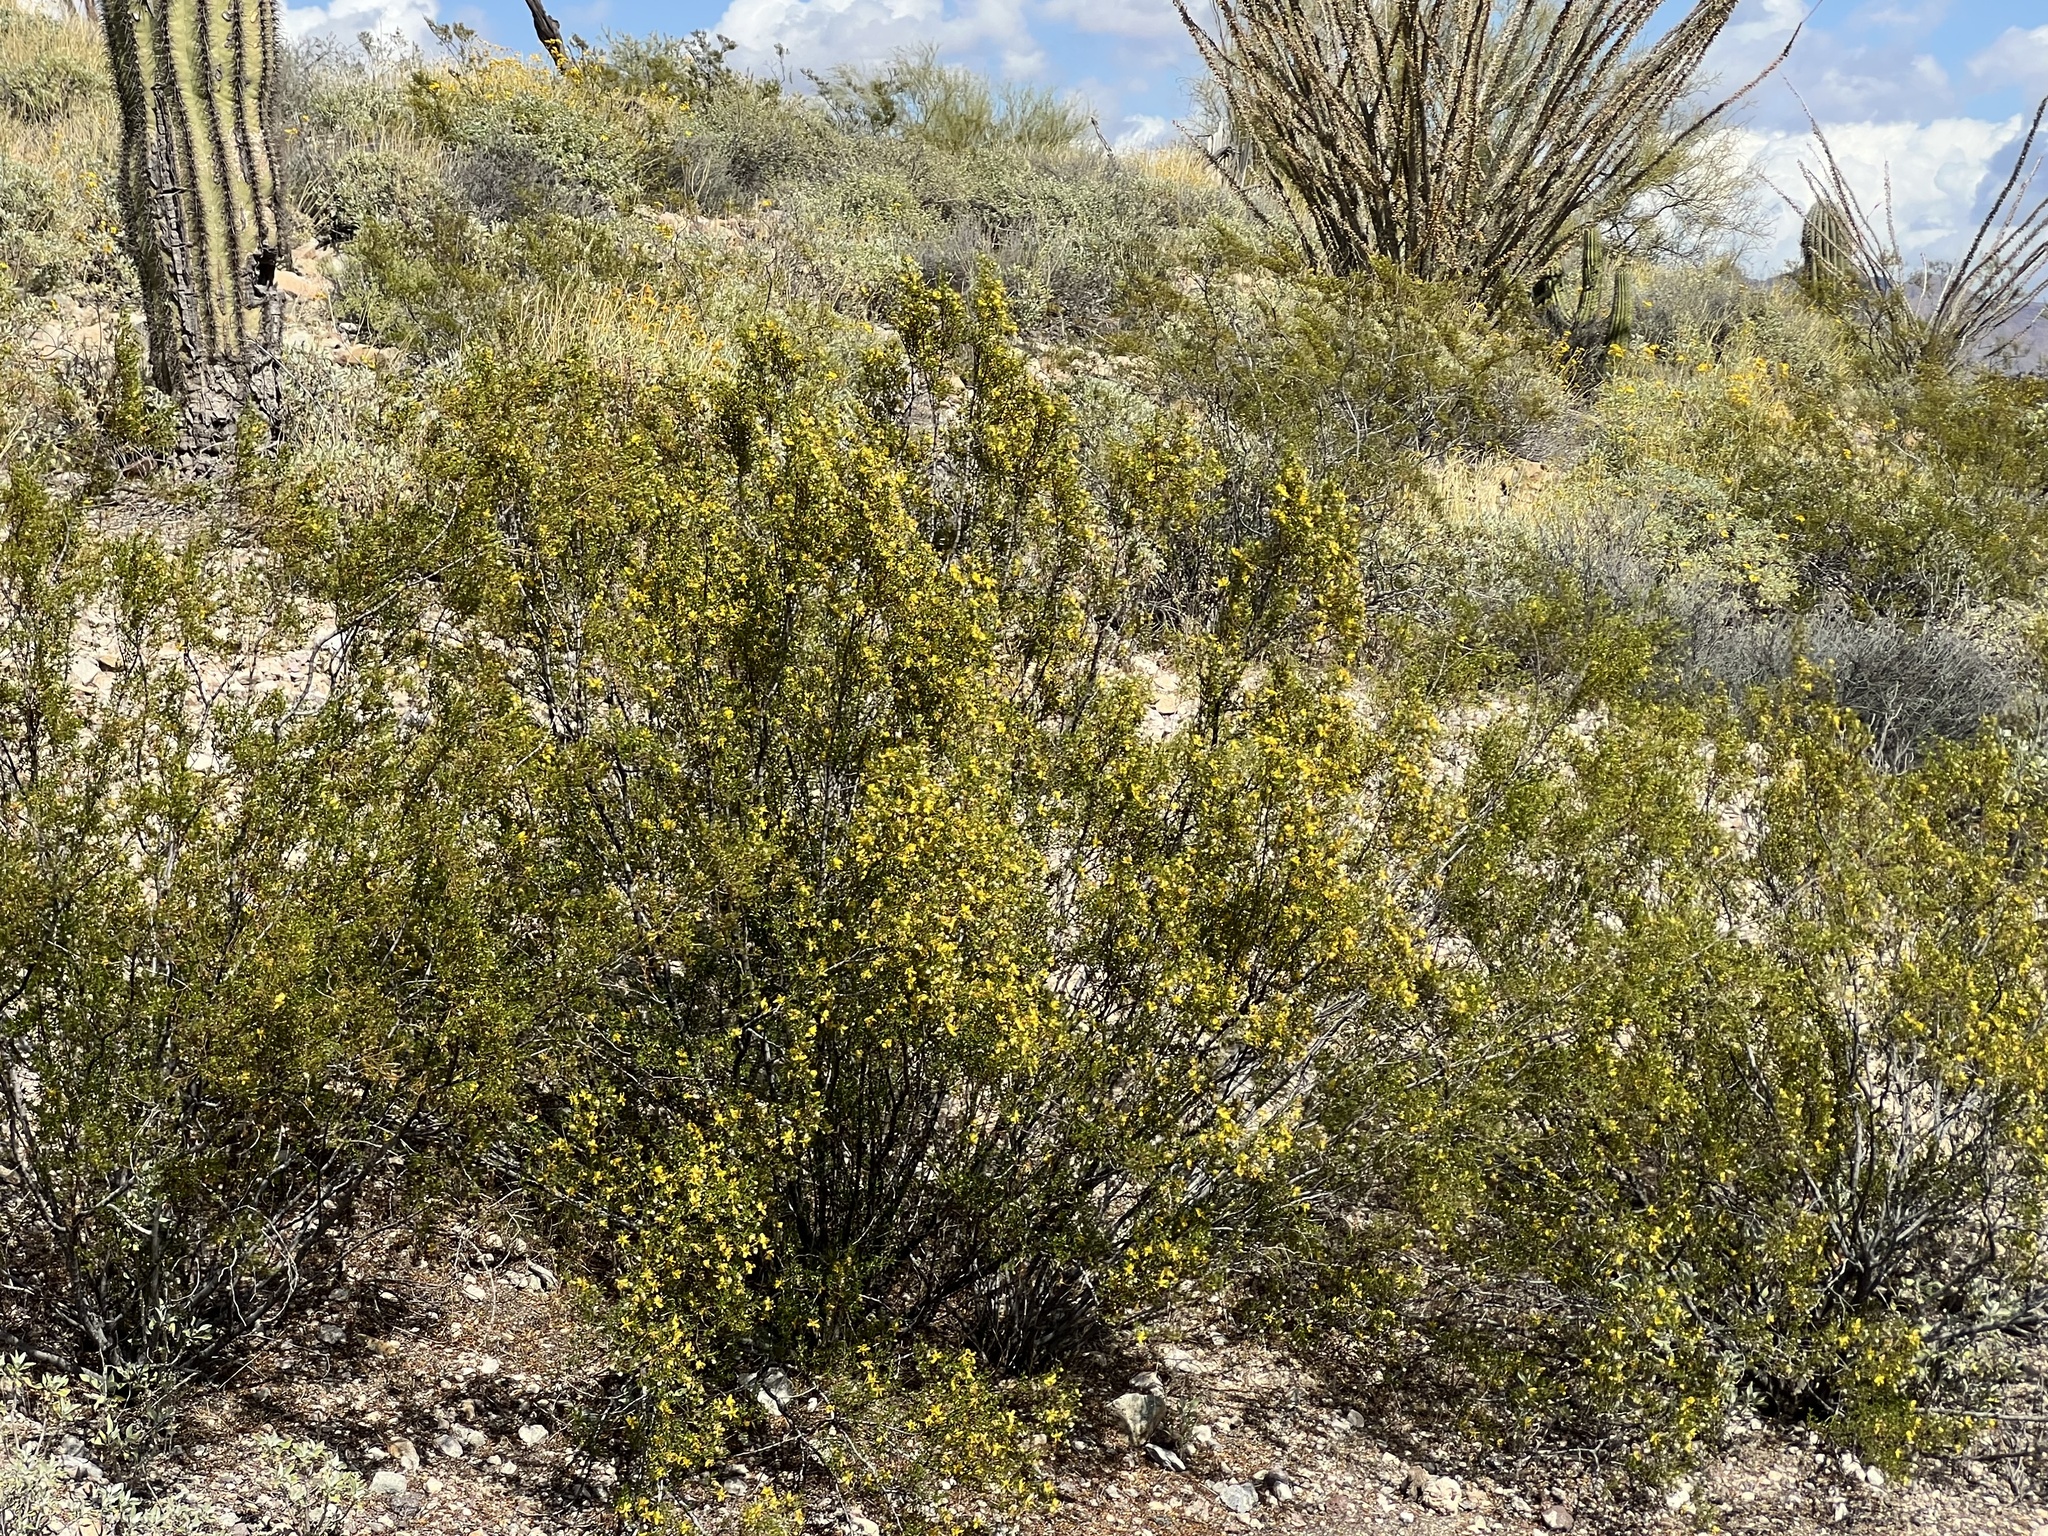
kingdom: Plantae
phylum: Tracheophyta
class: Magnoliopsida
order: Zygophyllales
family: Zygophyllaceae
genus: Larrea
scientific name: Larrea tridentata
